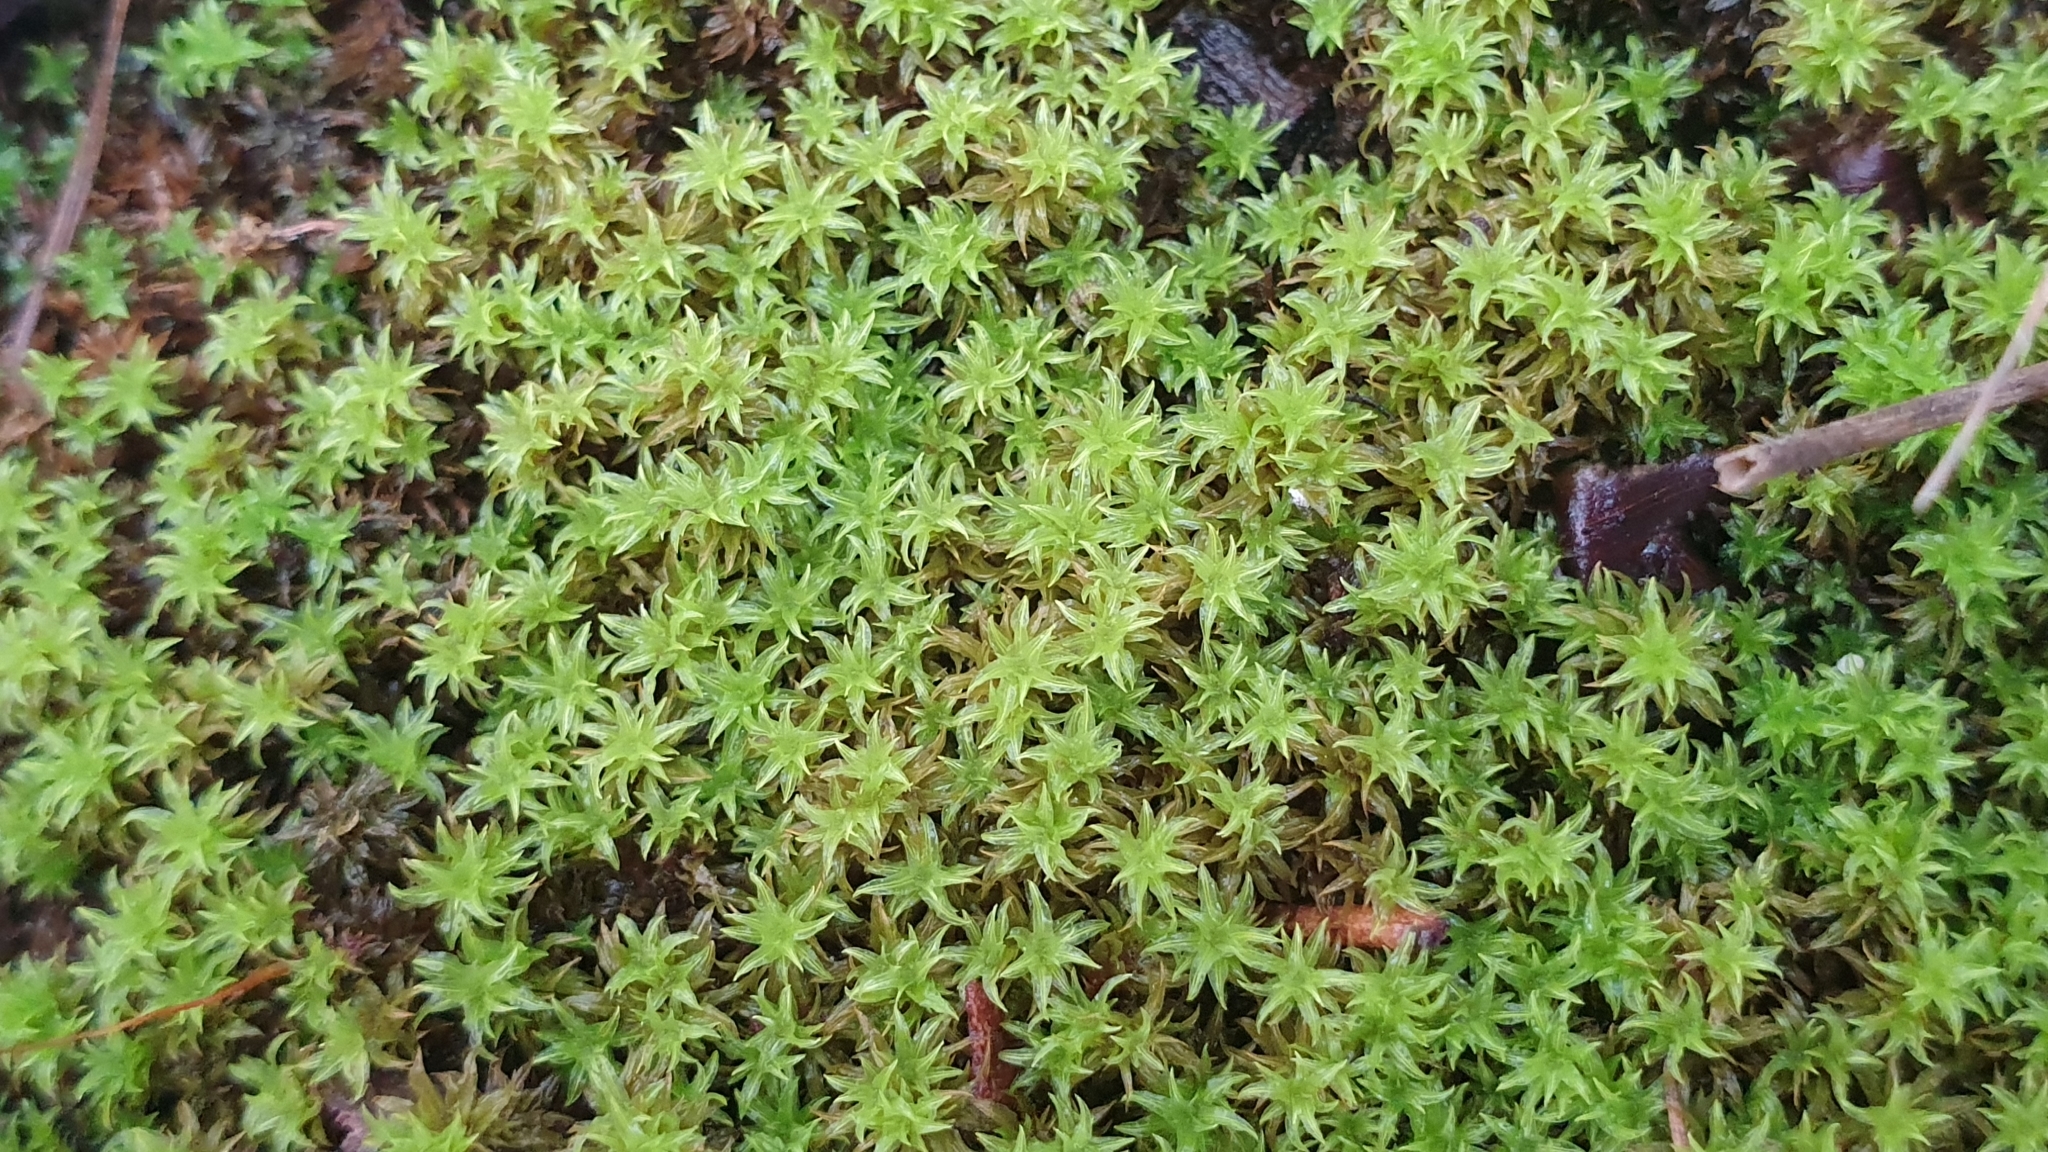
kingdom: Plantae
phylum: Bryophyta
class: Bryopsida
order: Pottiales
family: Pottiaceae
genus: Triquetrella
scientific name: Triquetrella paradoxa
